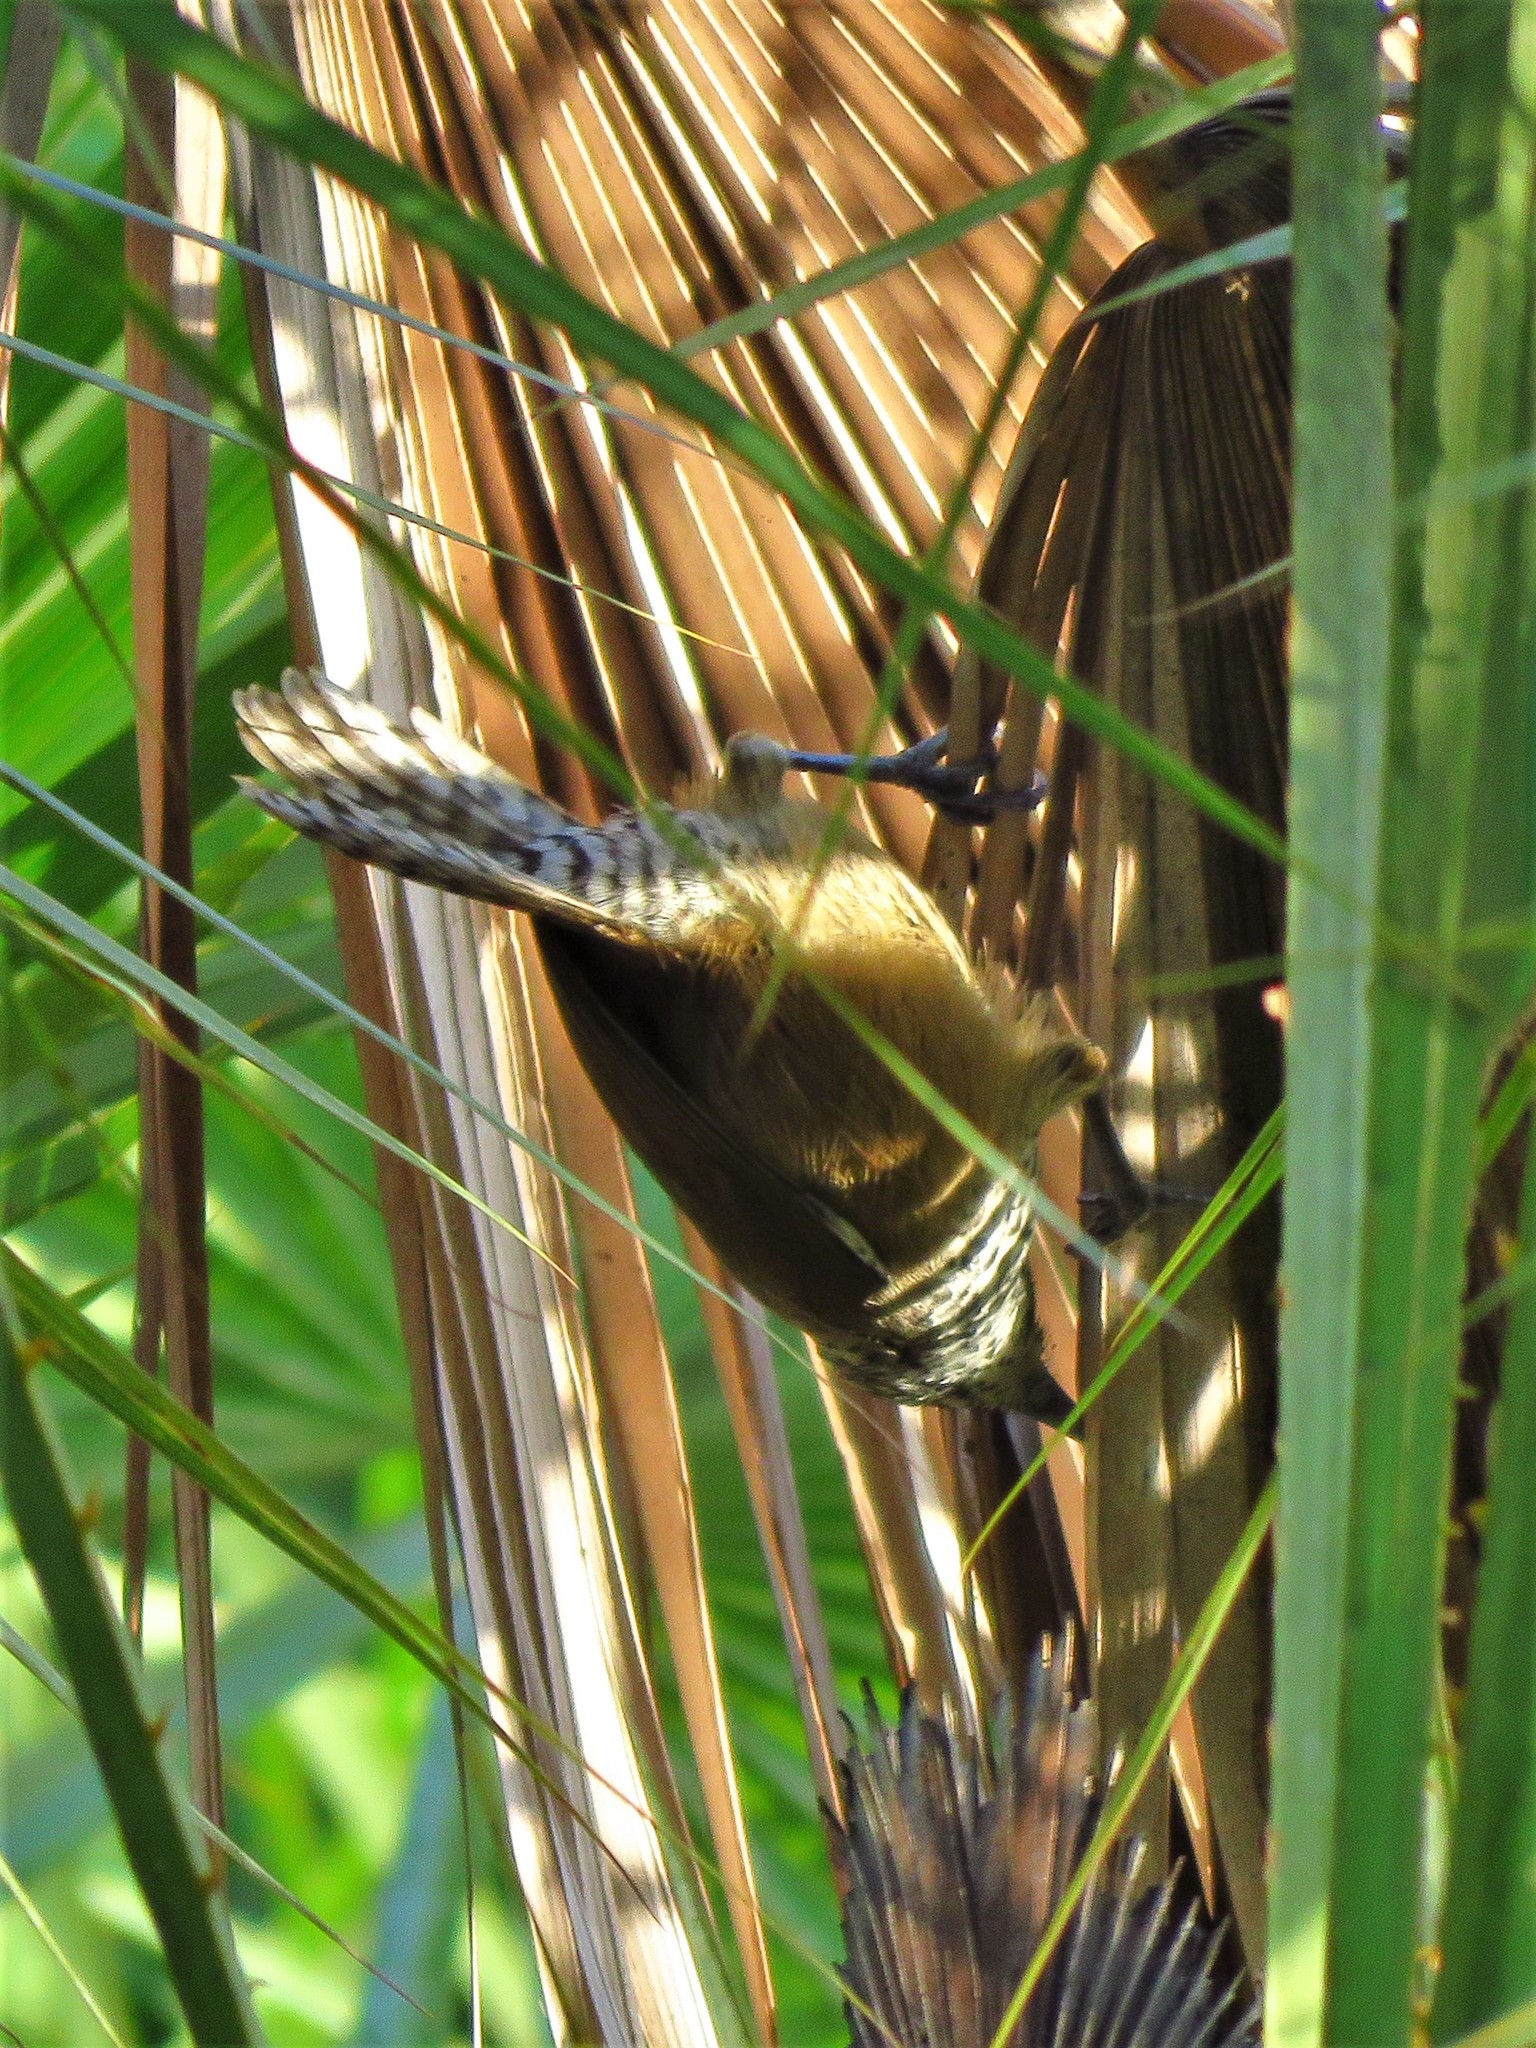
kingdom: Animalia
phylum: Chordata
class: Aves
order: Passeriformes
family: Troglodytidae
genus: Pheugopedius
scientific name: Pheugopedius maculipectus
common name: Spot-breasted wren
